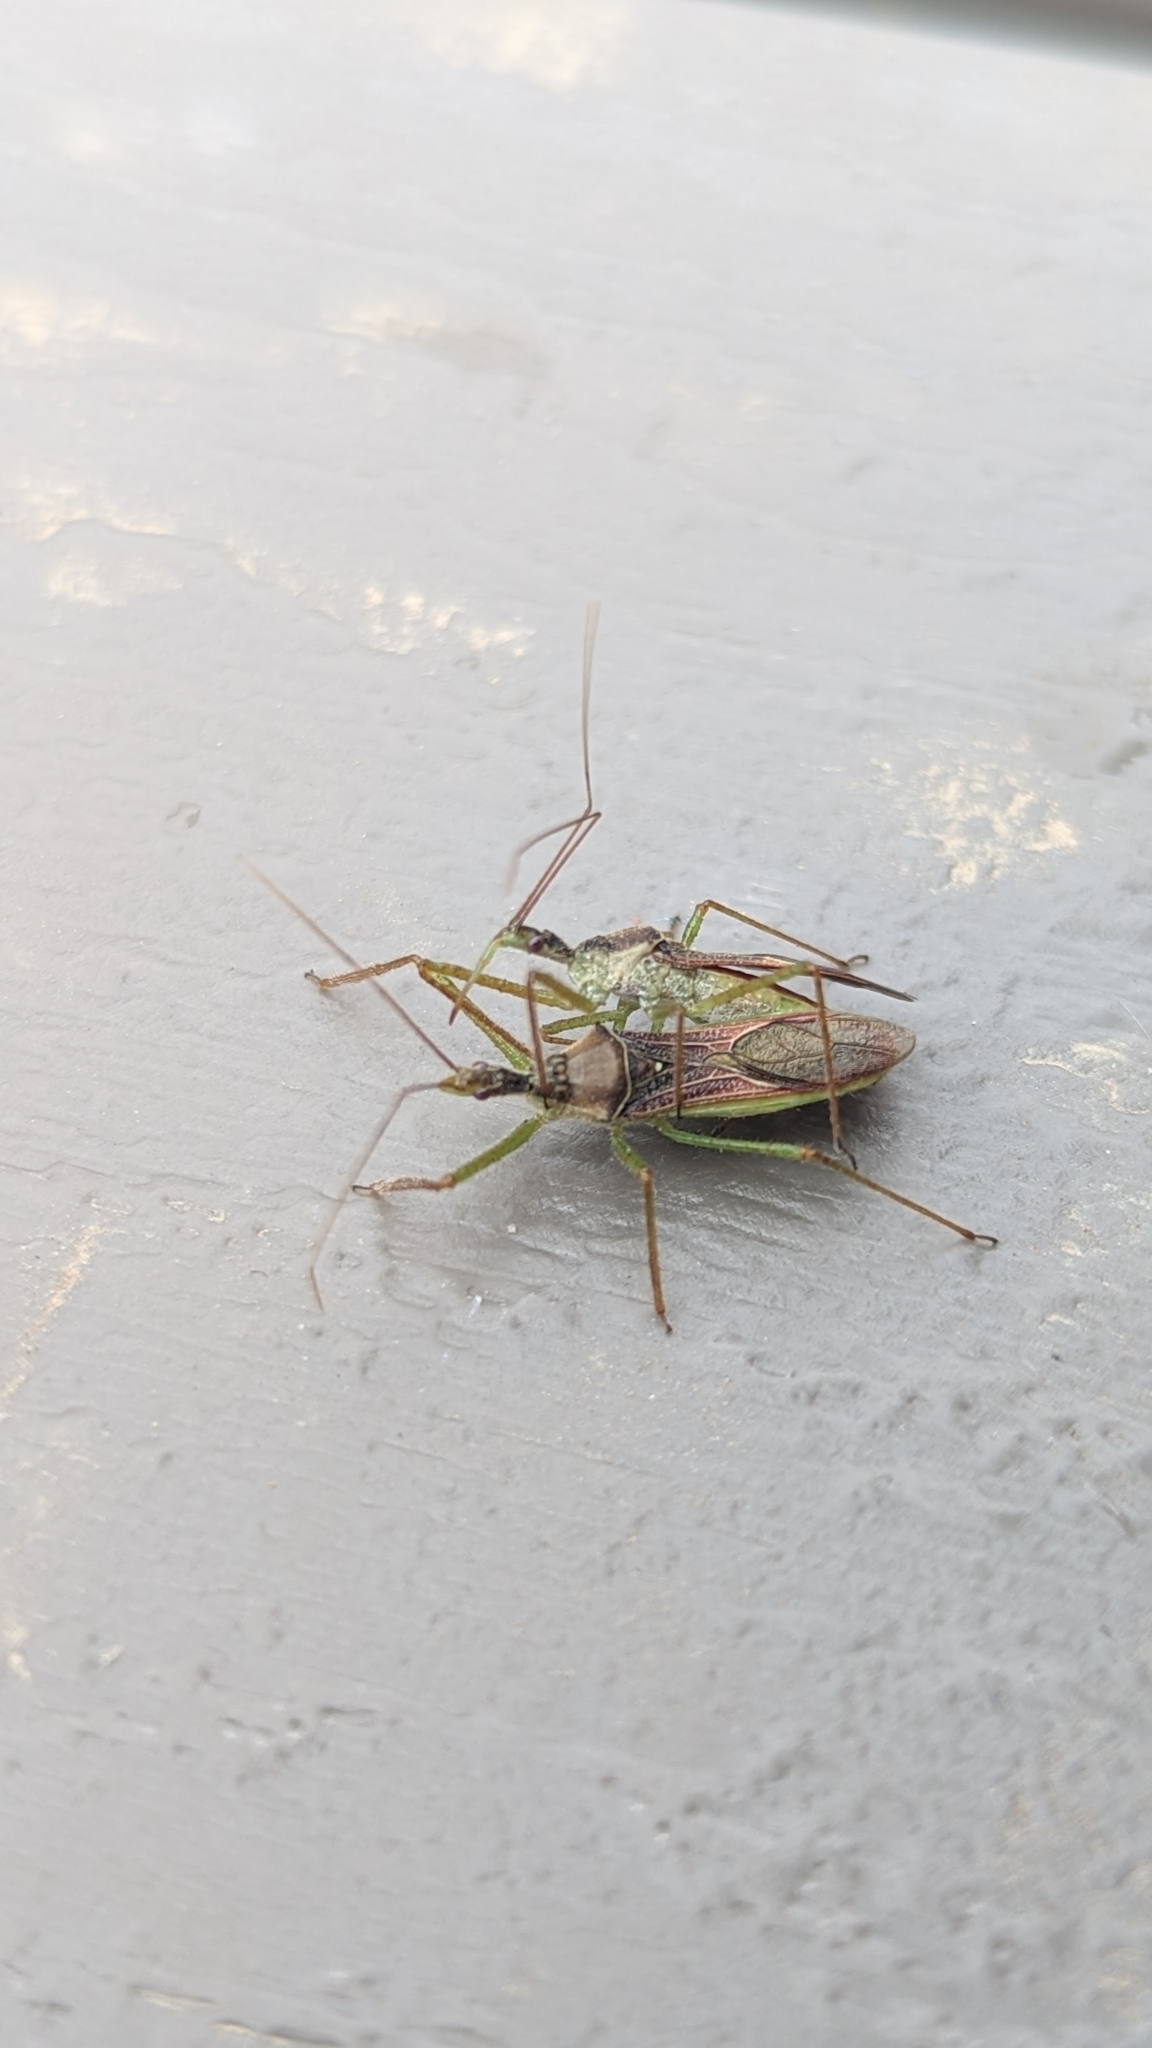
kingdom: Animalia
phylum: Arthropoda
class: Insecta
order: Hemiptera
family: Reduviidae
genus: Zelus
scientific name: Zelus renardii
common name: Assassin bug
